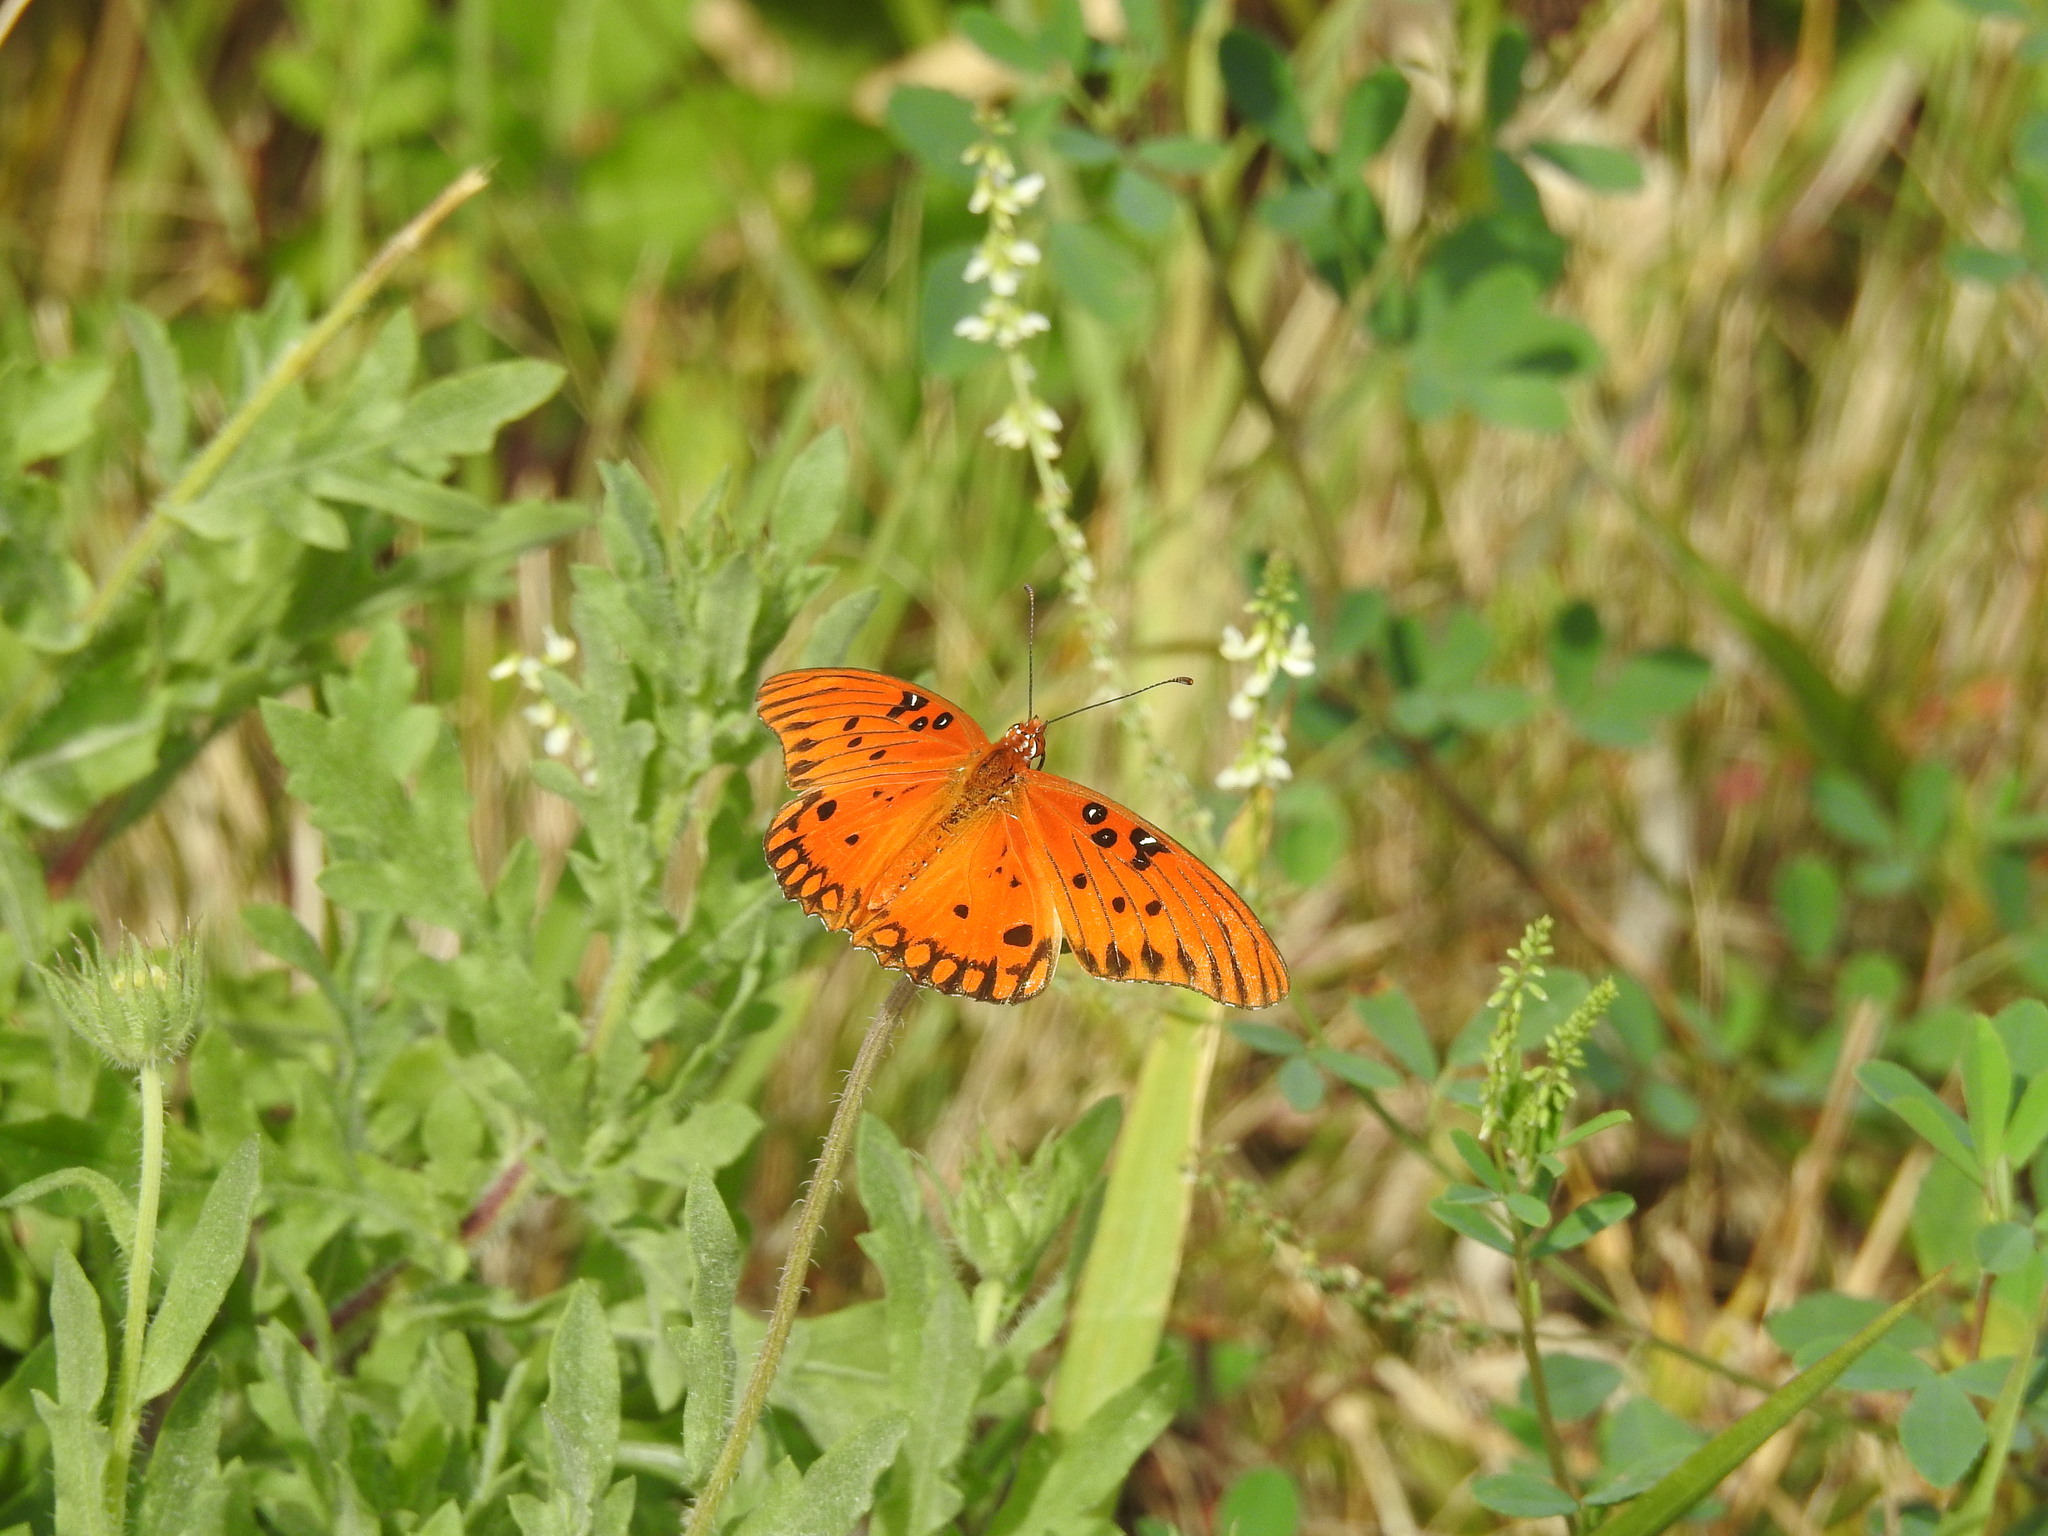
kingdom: Animalia
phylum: Arthropoda
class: Insecta
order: Lepidoptera
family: Nymphalidae
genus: Dione
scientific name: Dione vanillae
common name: Gulf fritillary
